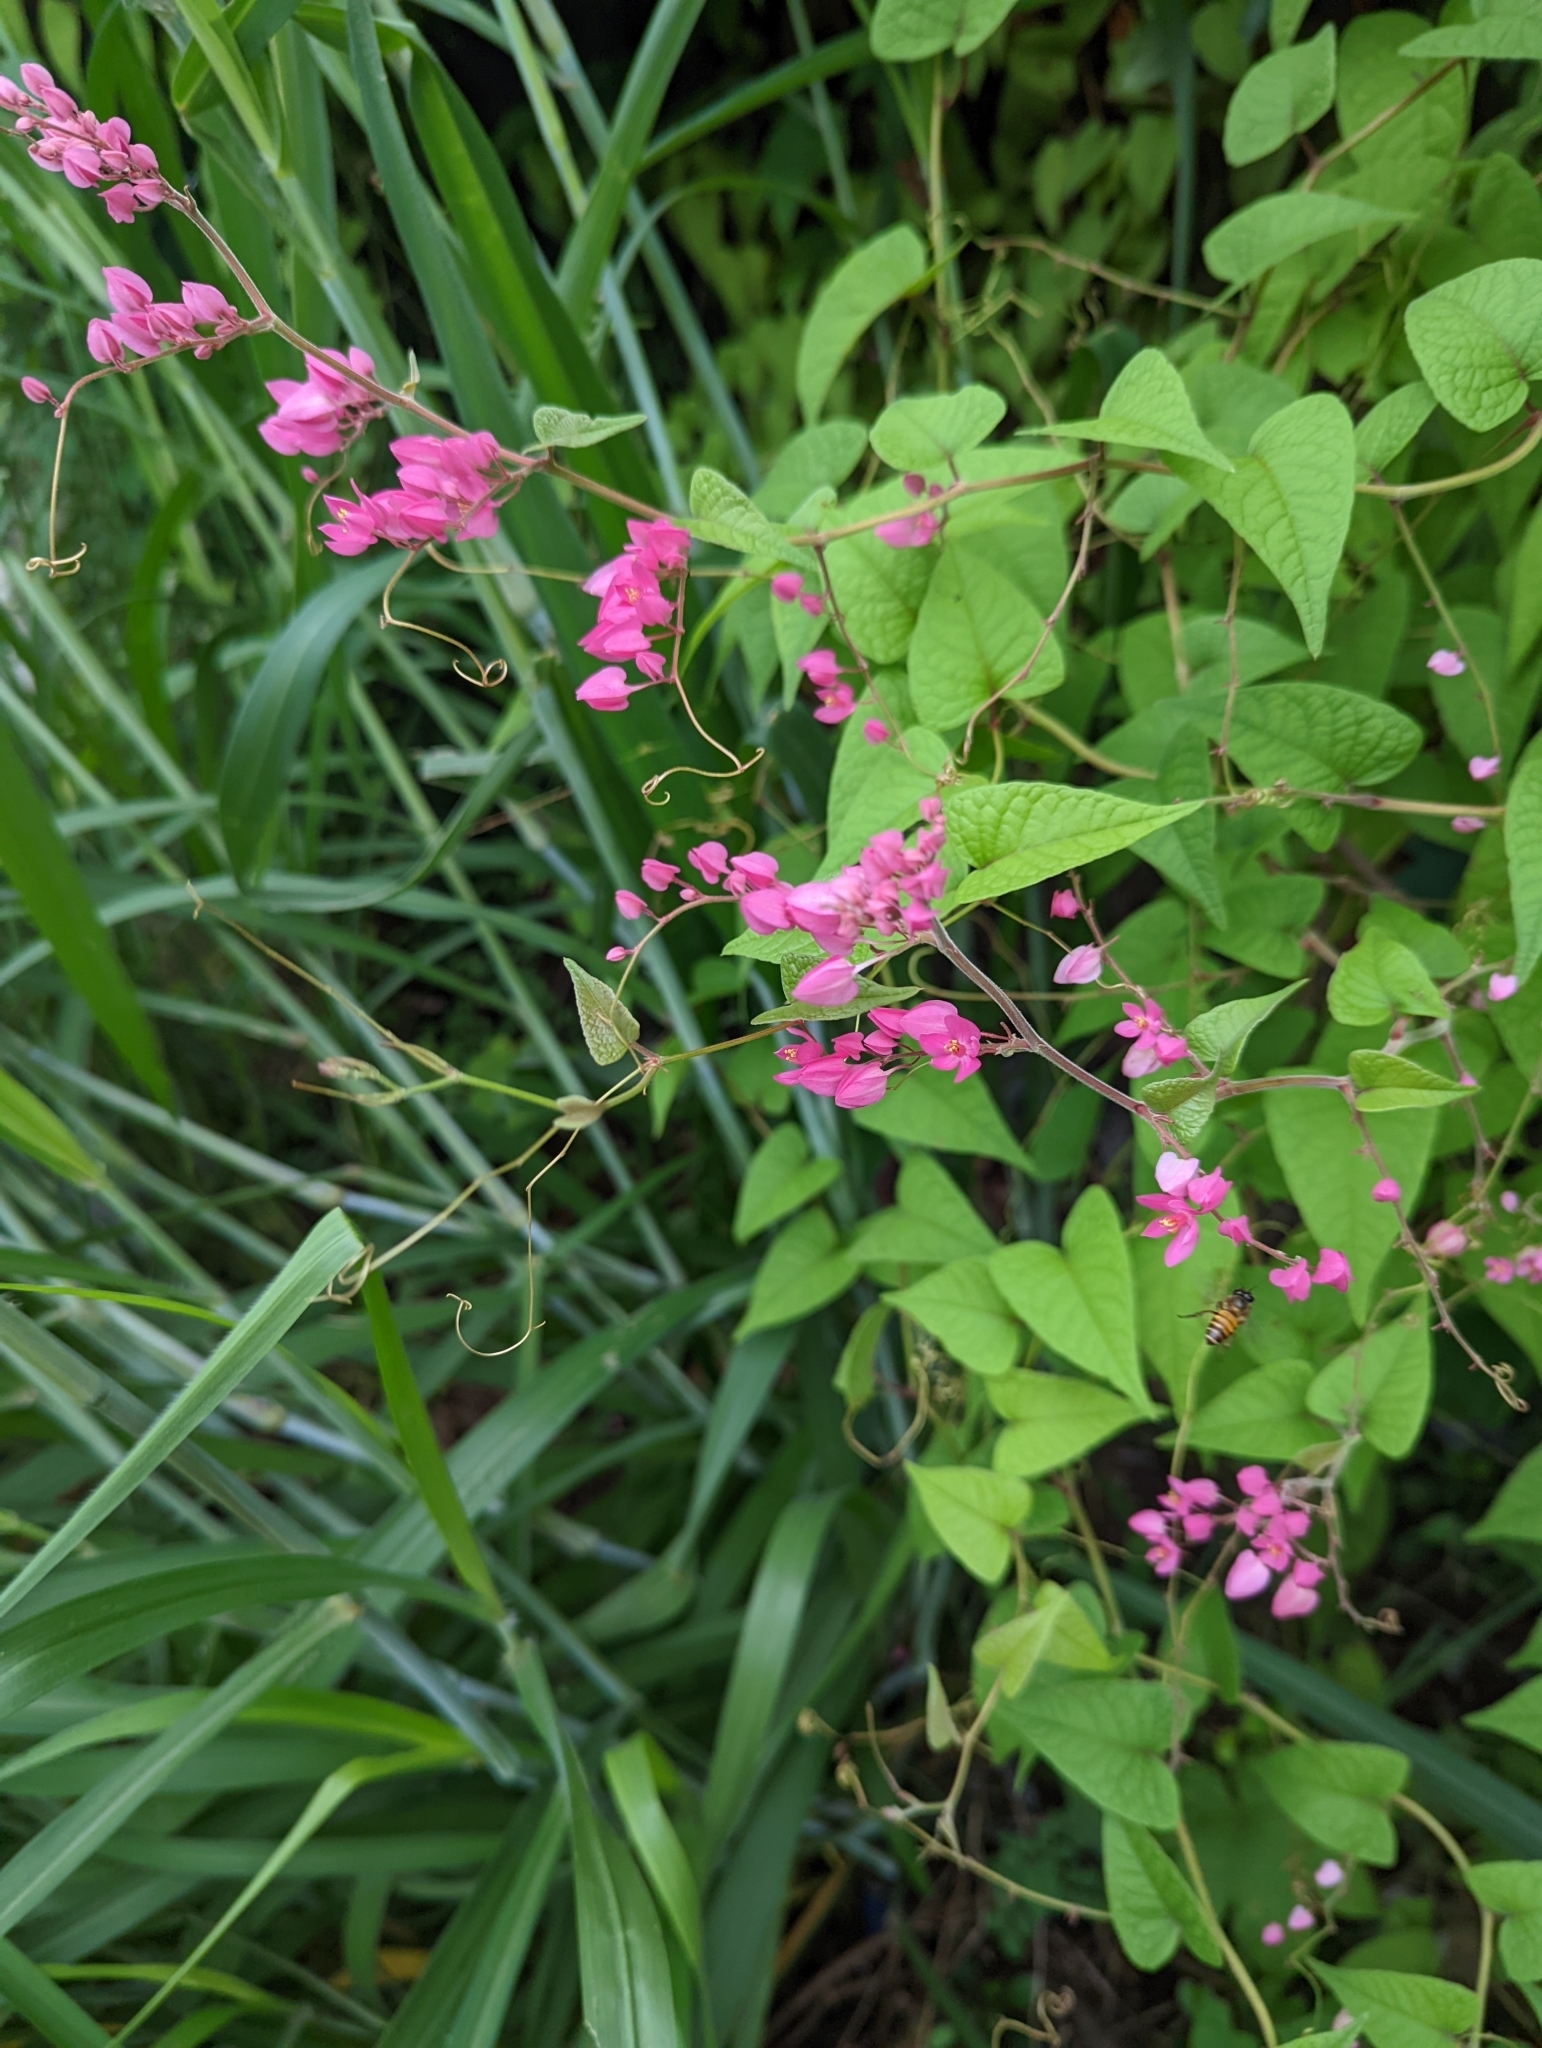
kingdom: Plantae
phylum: Tracheophyta
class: Magnoliopsida
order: Caryophyllales
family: Polygonaceae
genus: Antigonon
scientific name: Antigonon leptopus
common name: Coral vine
